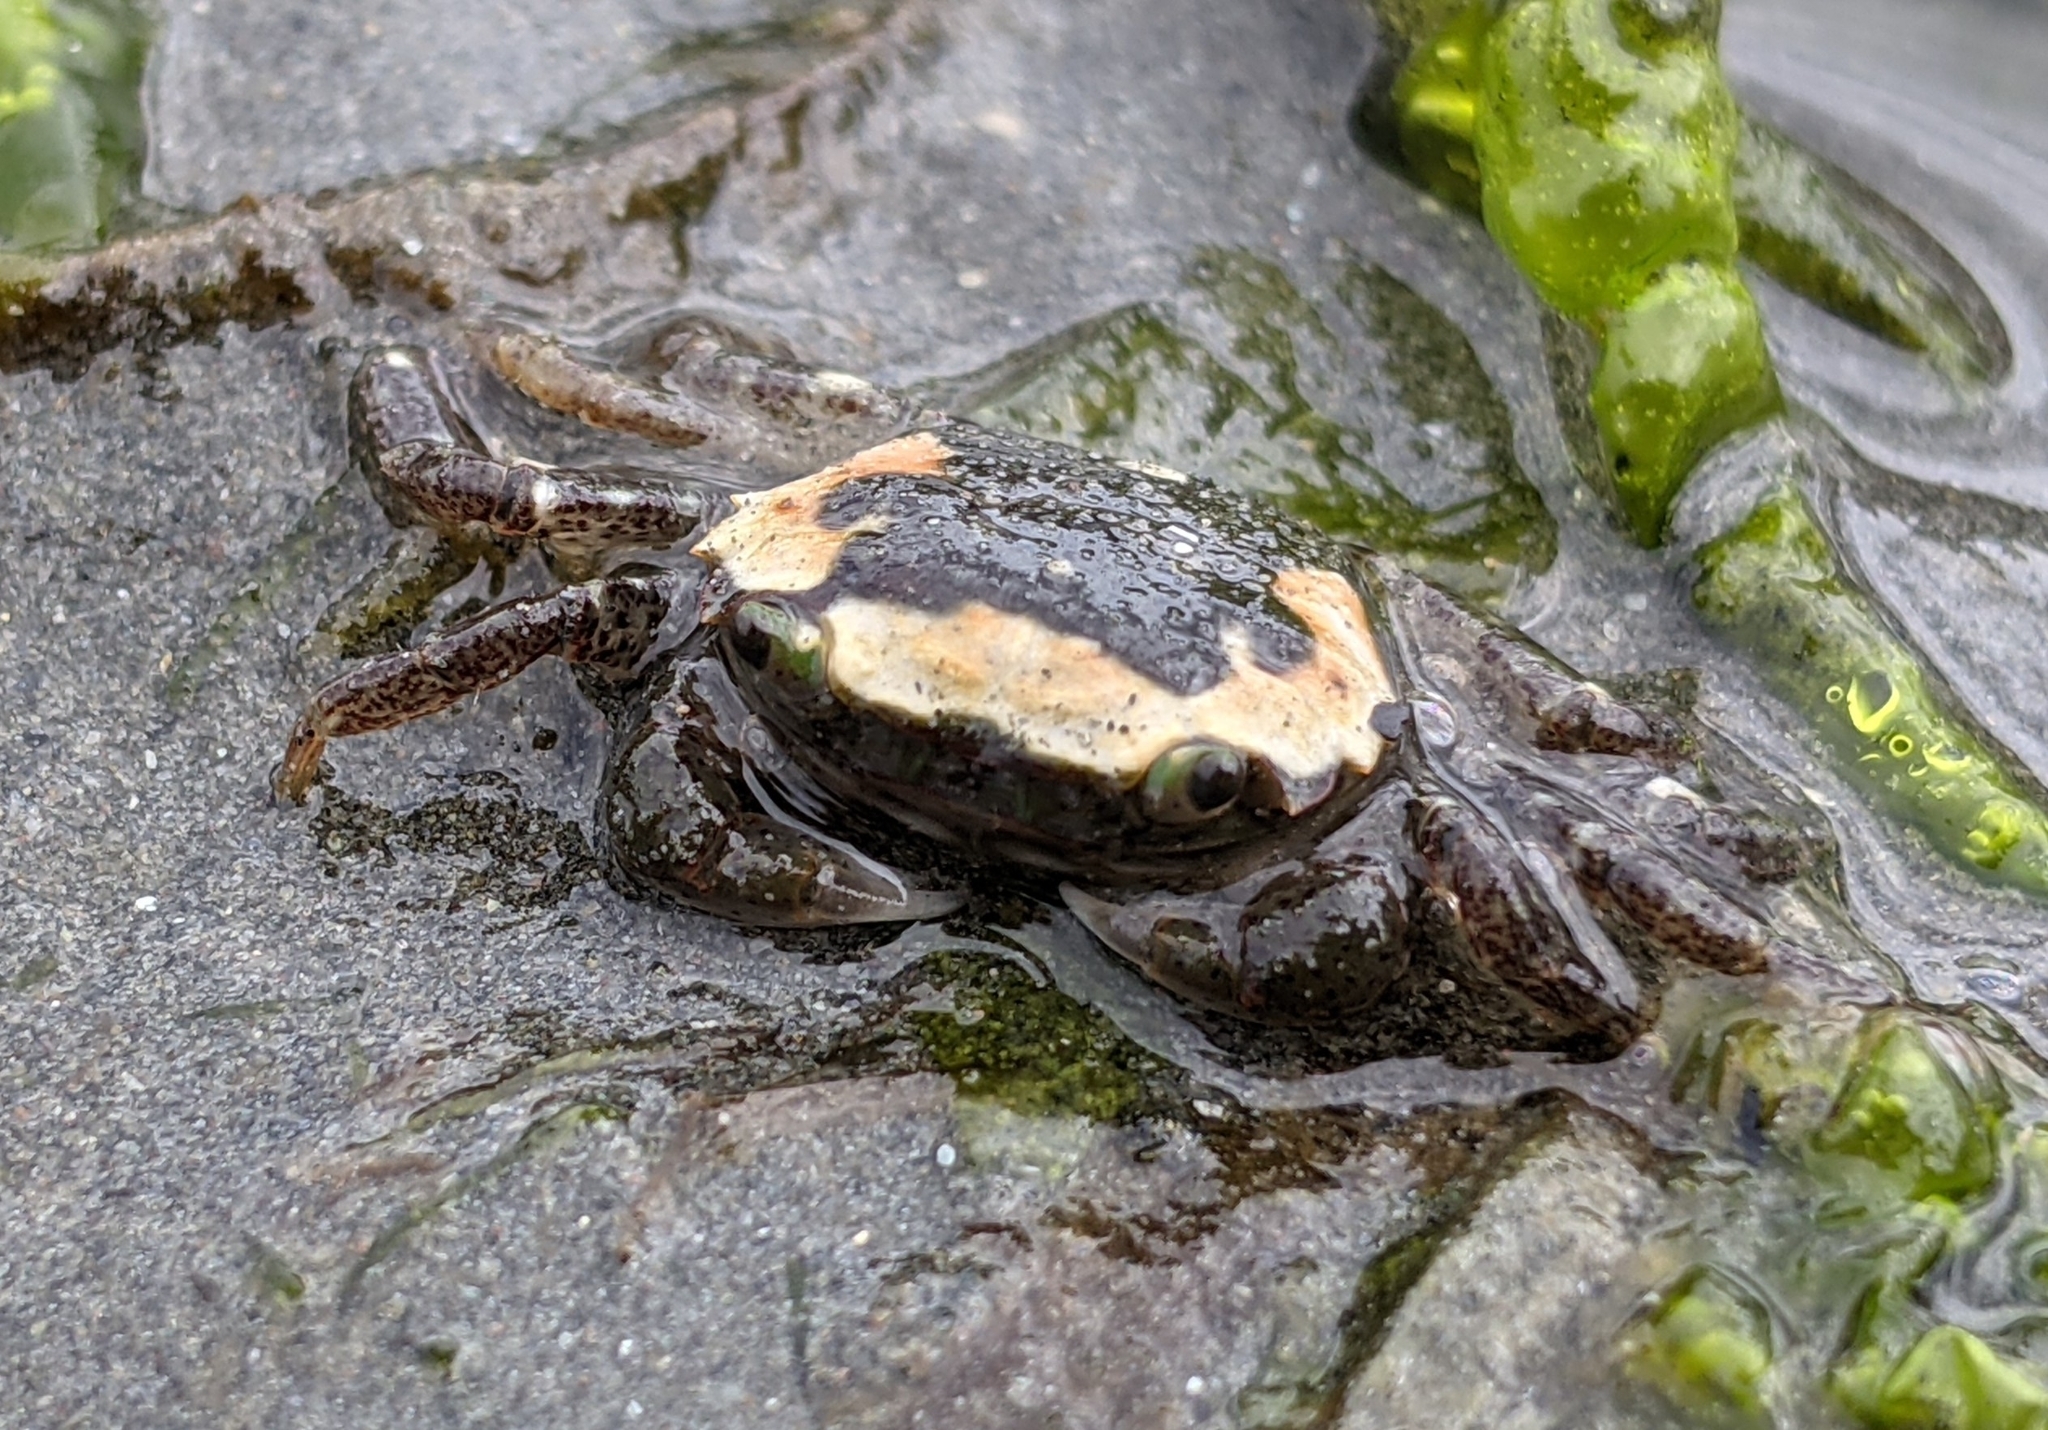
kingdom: Animalia
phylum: Arthropoda
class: Malacostraca
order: Decapoda
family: Varunidae
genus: Hemigrapsus
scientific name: Hemigrapsus oregonensis
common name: Yellow shore crab
